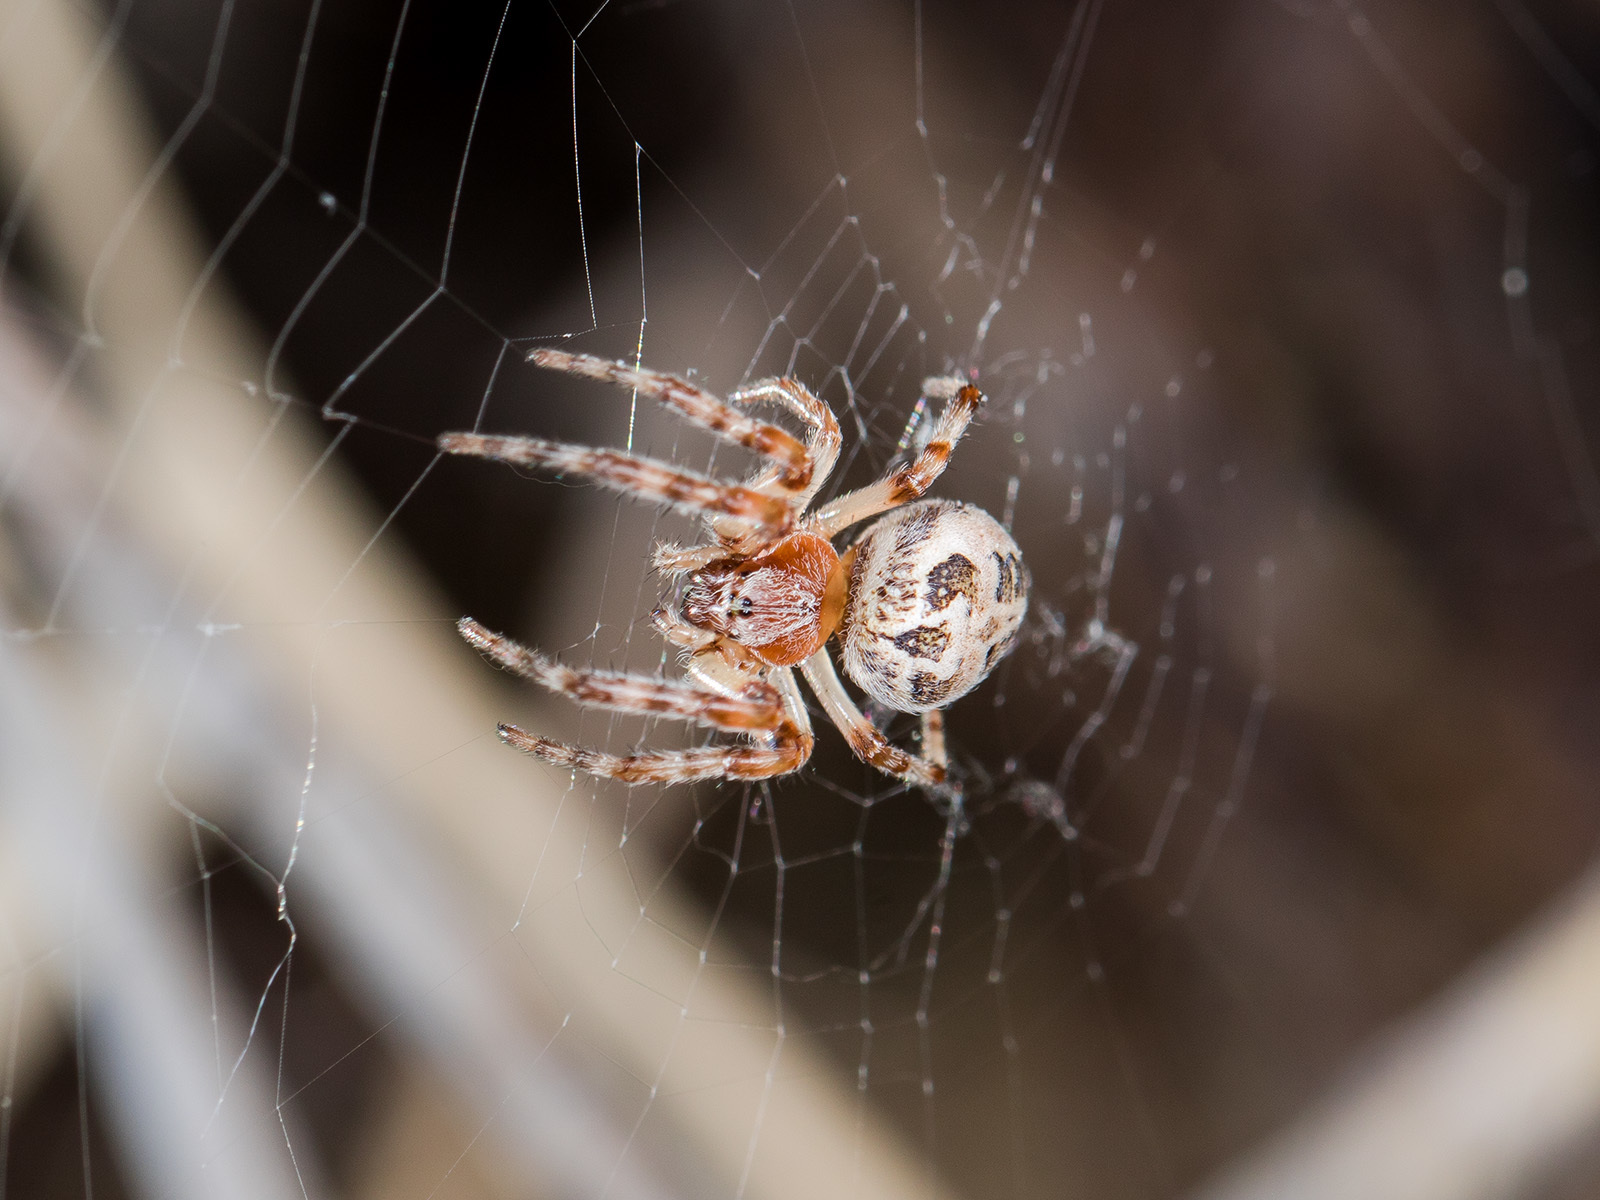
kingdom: Animalia
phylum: Arthropoda
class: Arachnida
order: Araneae
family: Araneidae
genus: Larinioides
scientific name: Larinioides suspicax
